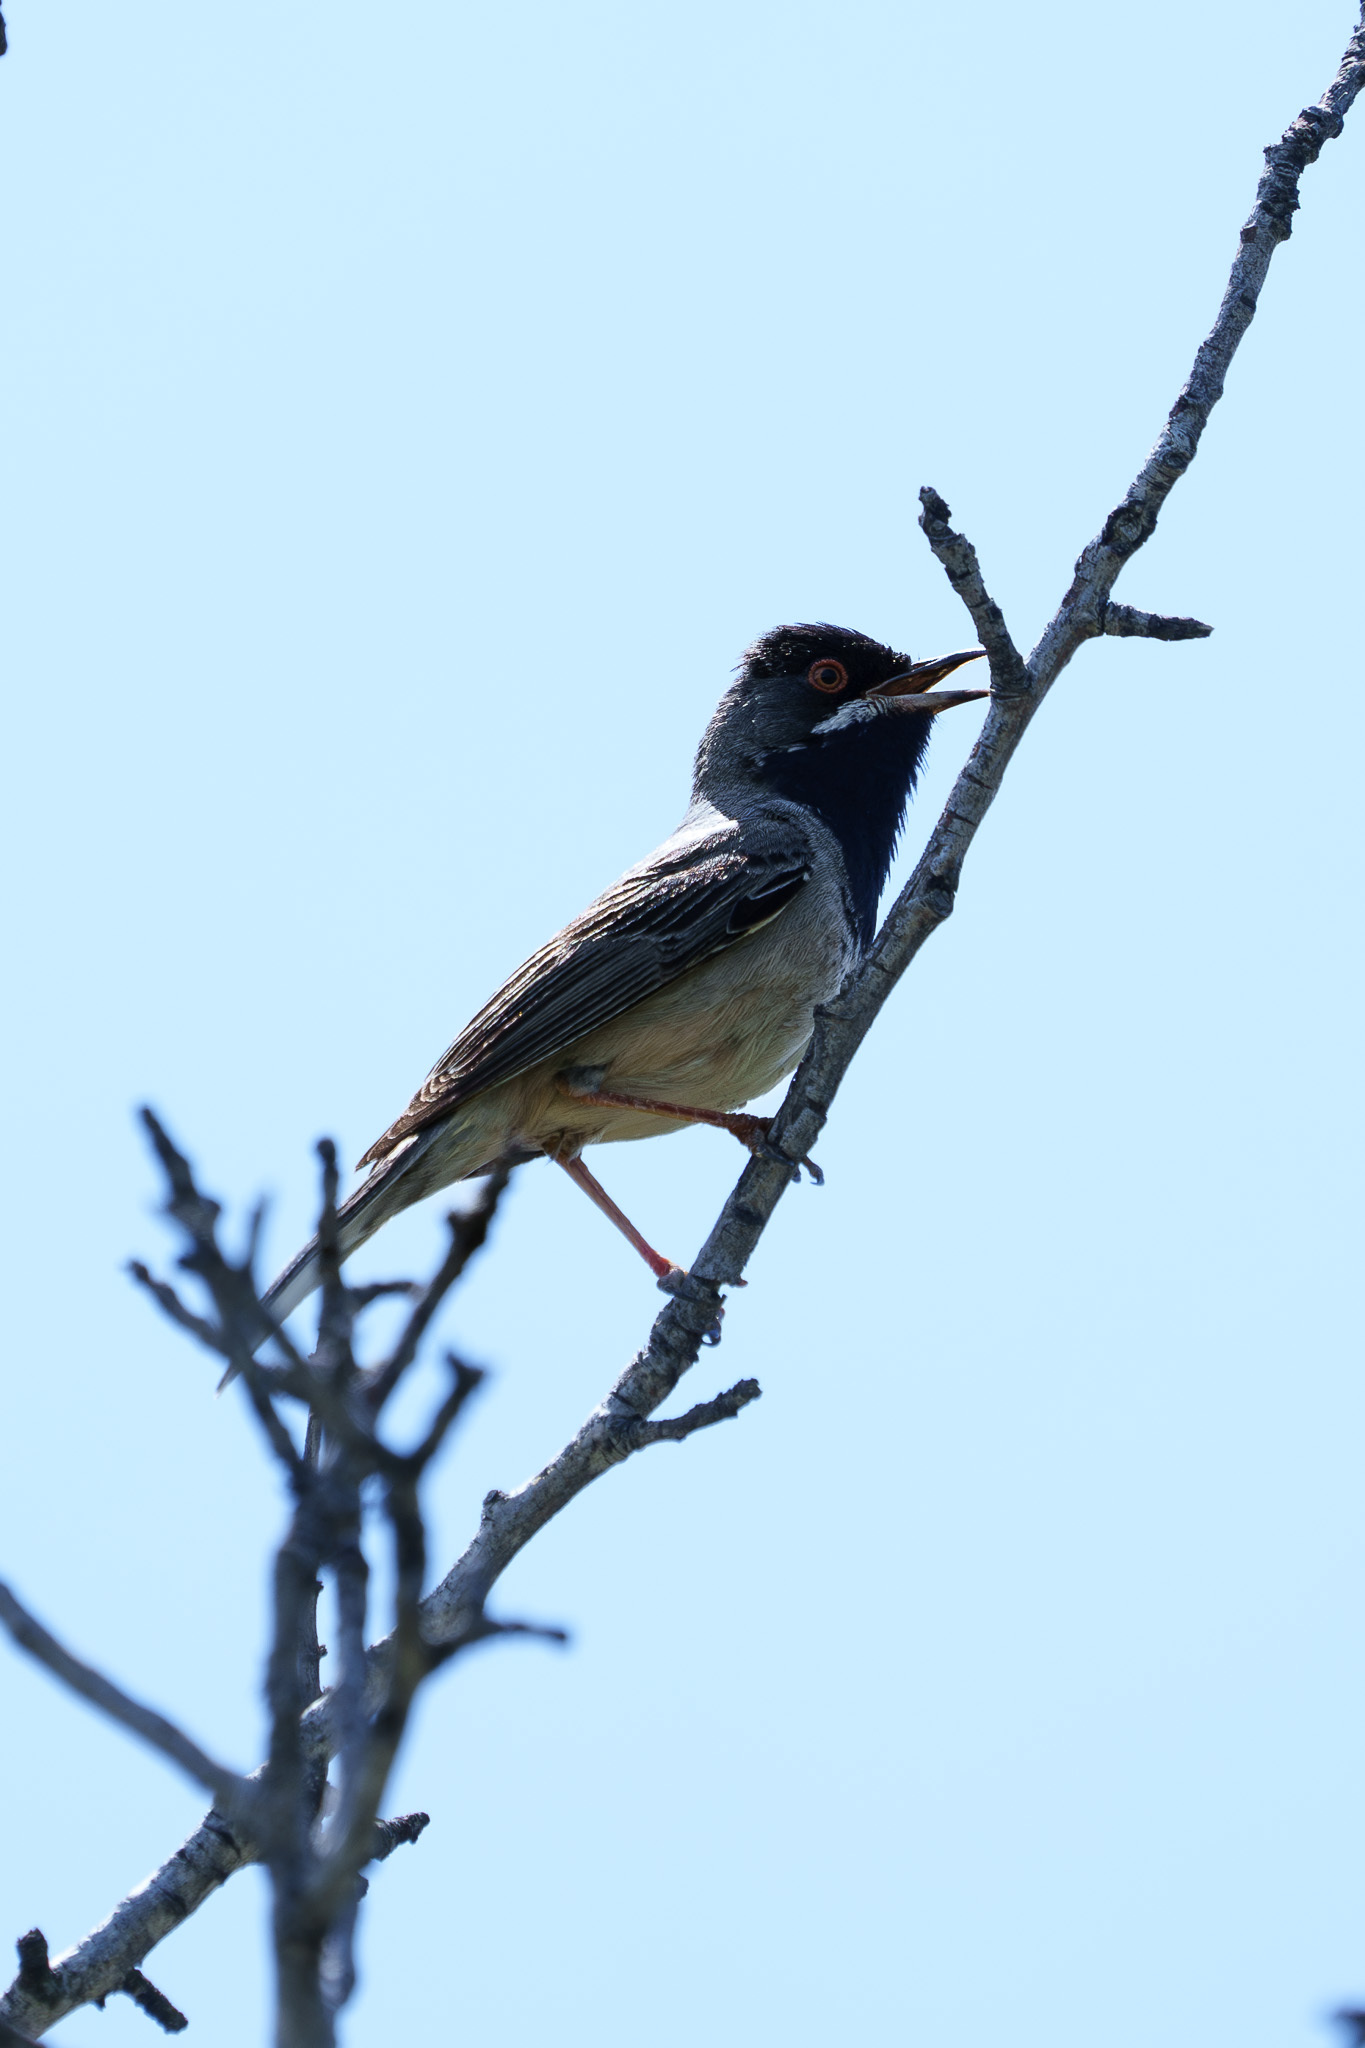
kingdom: Animalia
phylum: Chordata
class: Aves
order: Passeriformes
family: Sylviidae
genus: Sylvia
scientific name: Sylvia ruppeli
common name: Rüppell's warbler
